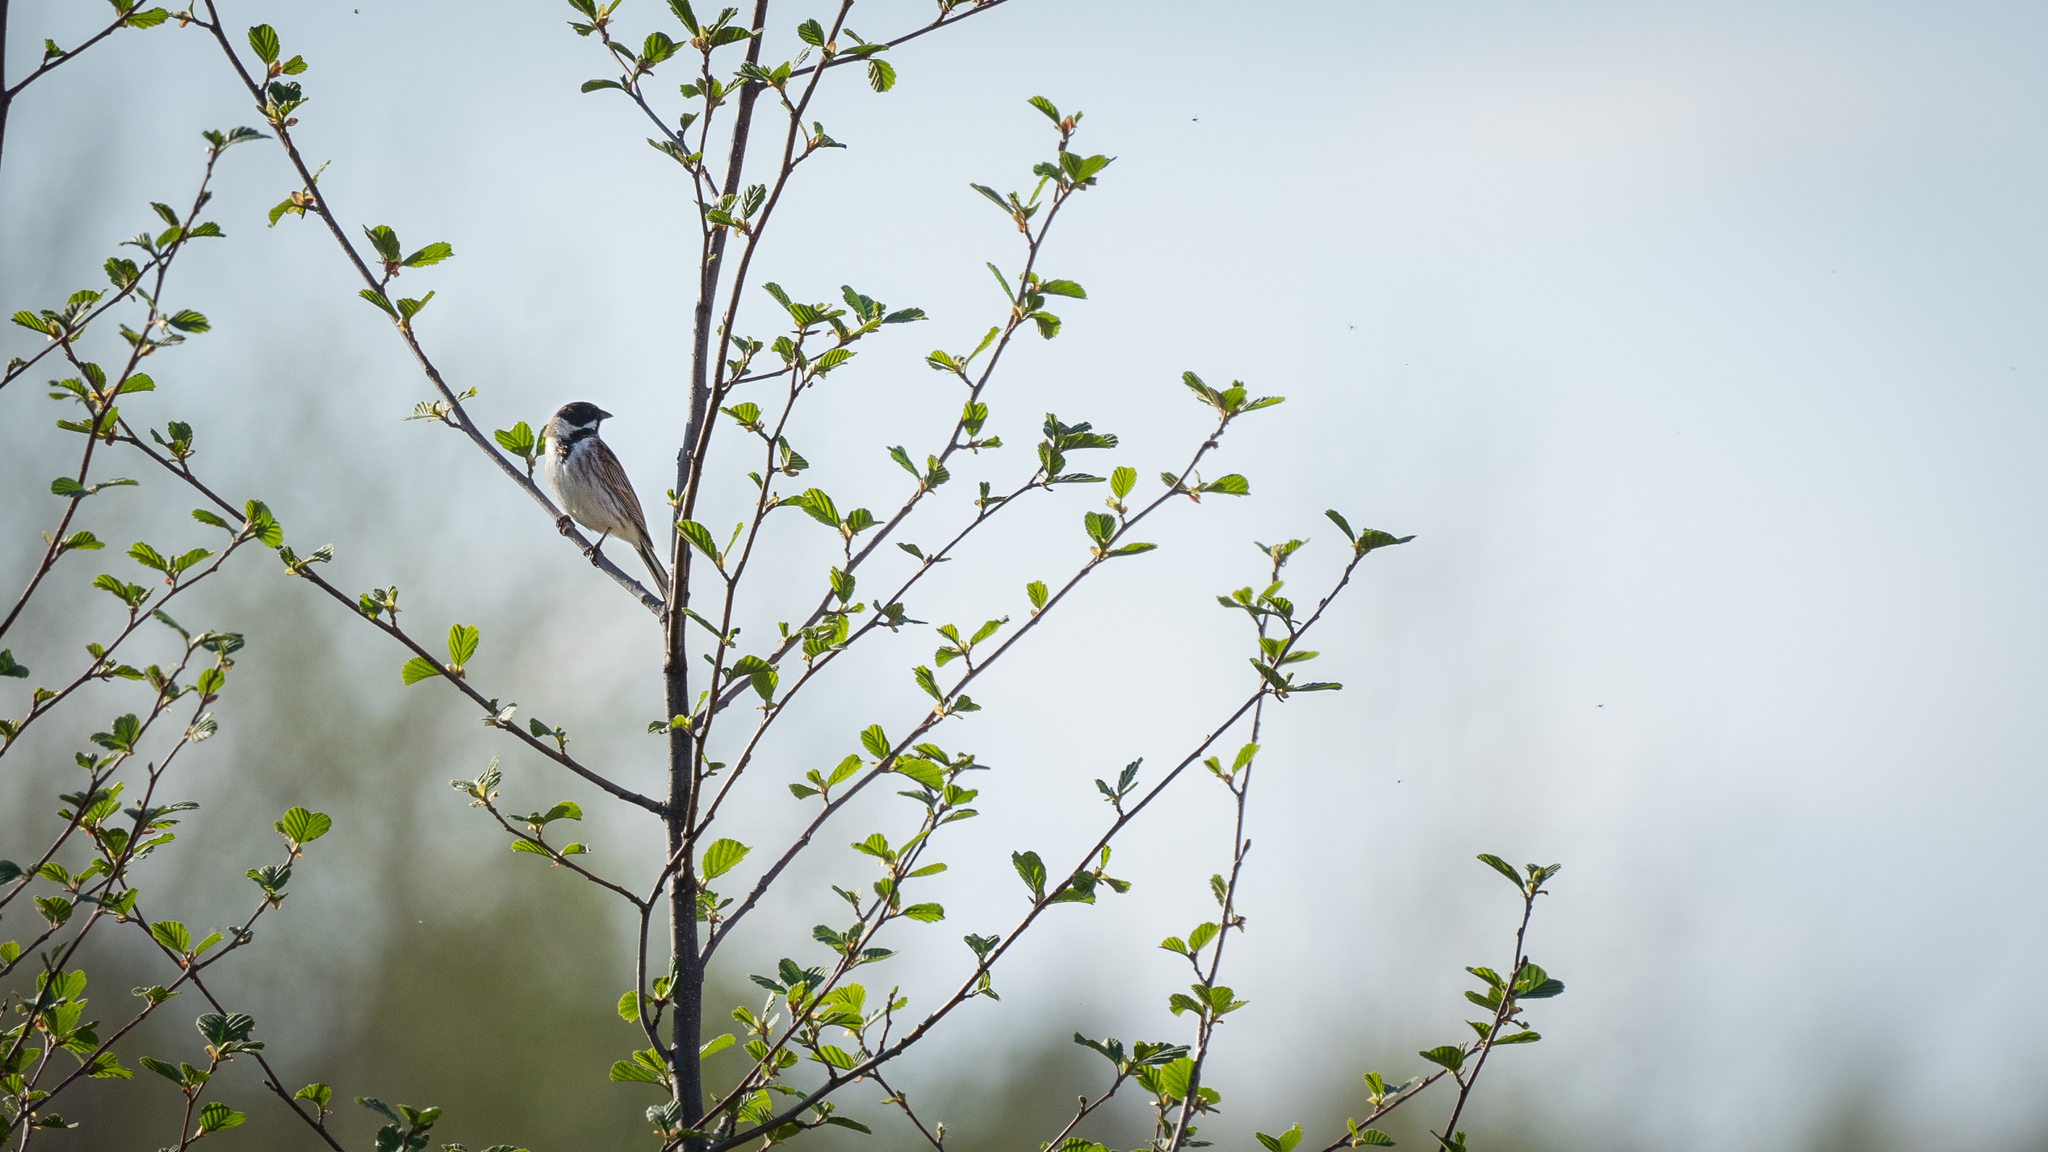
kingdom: Animalia
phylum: Chordata
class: Aves
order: Passeriformes
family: Emberizidae
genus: Emberiza
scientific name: Emberiza schoeniclus
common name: Reed bunting
